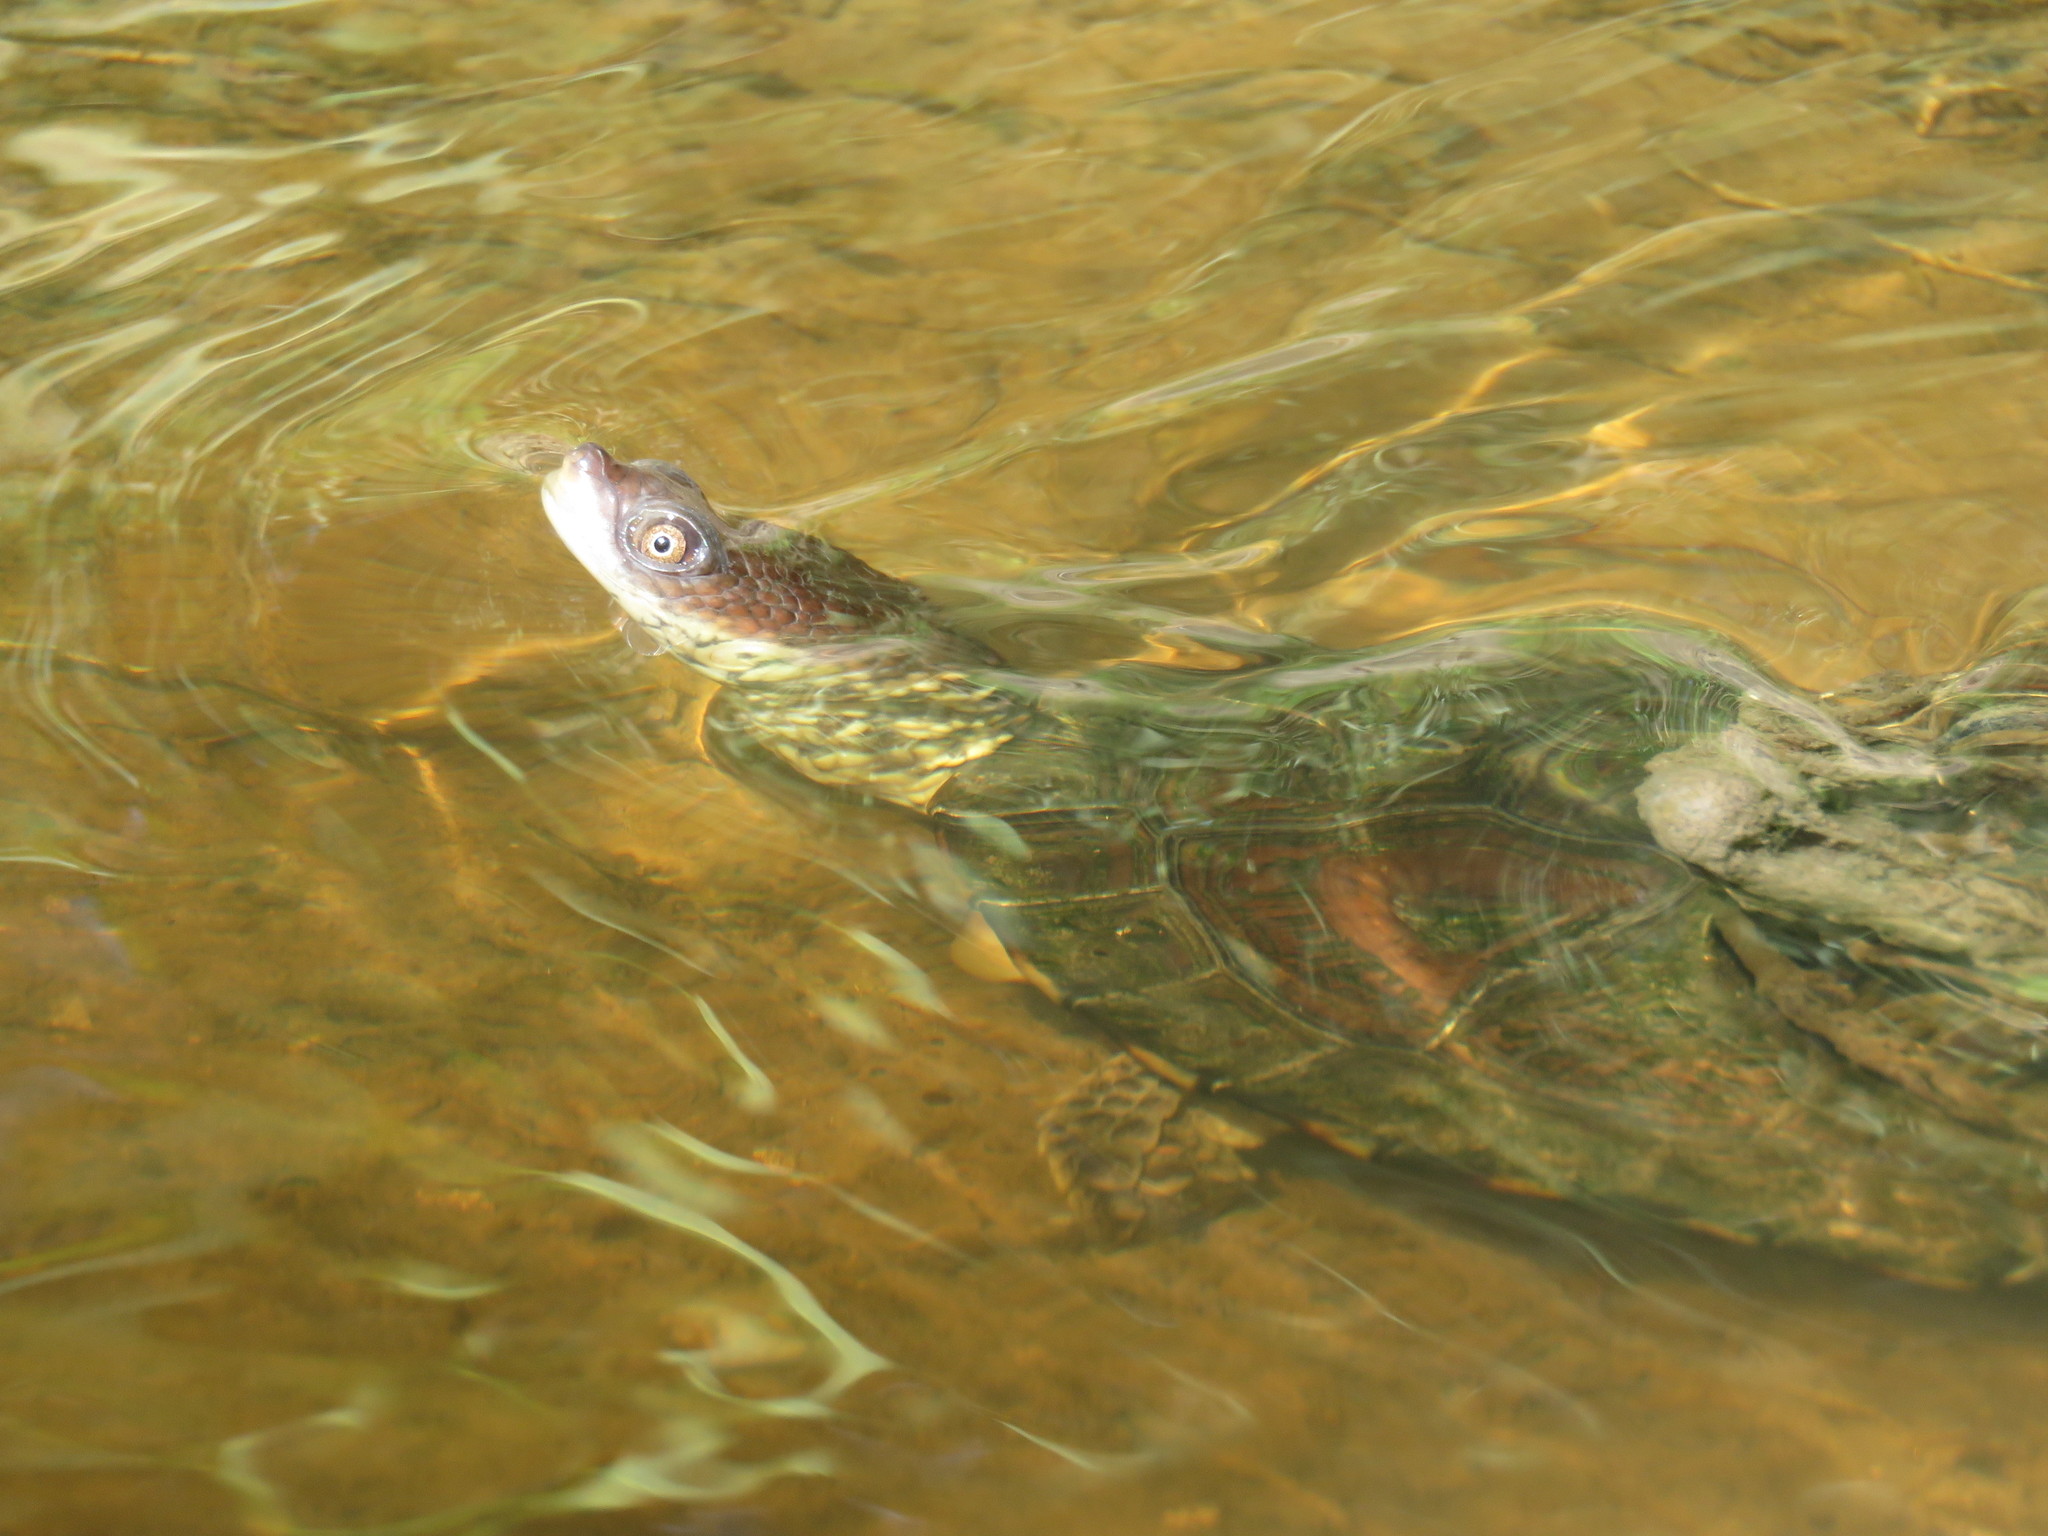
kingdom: Animalia
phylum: Chordata
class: Testudines
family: Chelidae
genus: Acanthochelys
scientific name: Acanthochelys pallidipectoris
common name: Chaco side-necked turtle
